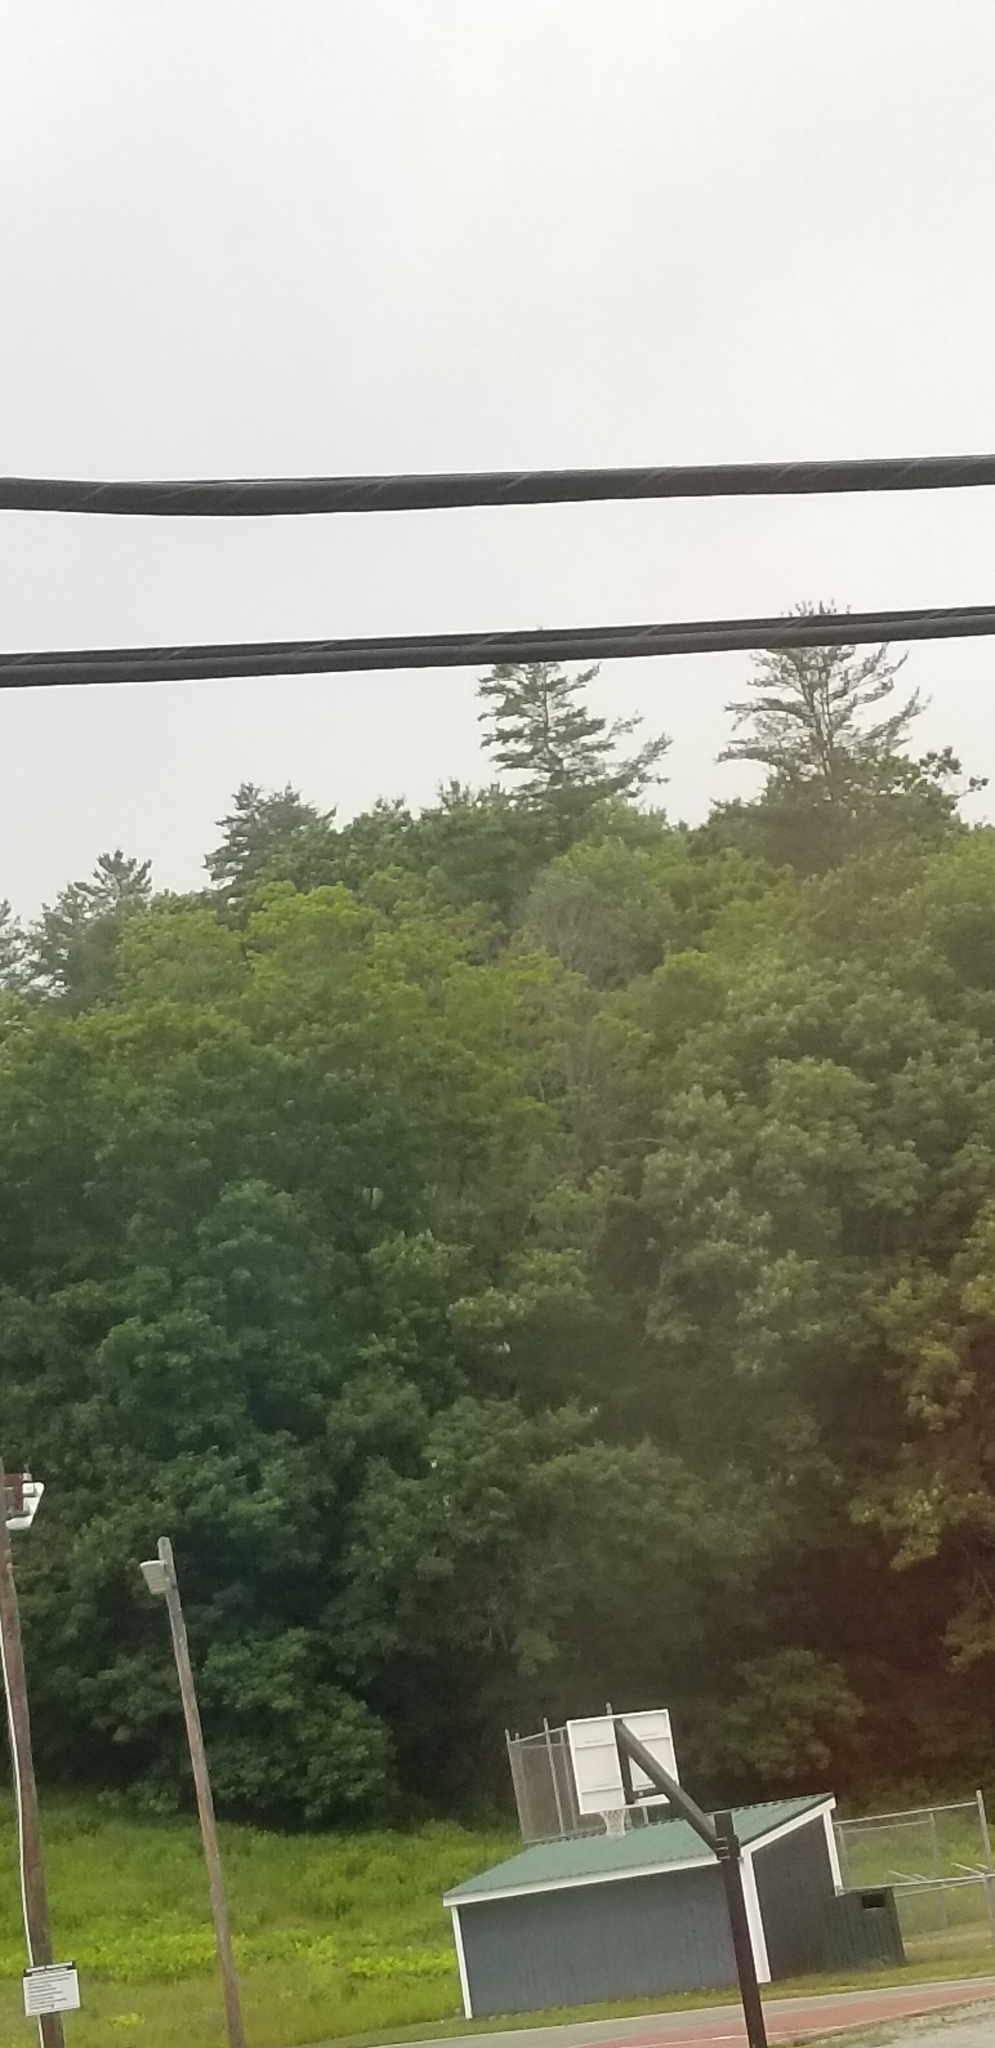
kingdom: Plantae
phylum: Tracheophyta
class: Pinopsida
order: Pinales
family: Pinaceae
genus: Pinus
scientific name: Pinus strobus
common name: Weymouth pine
